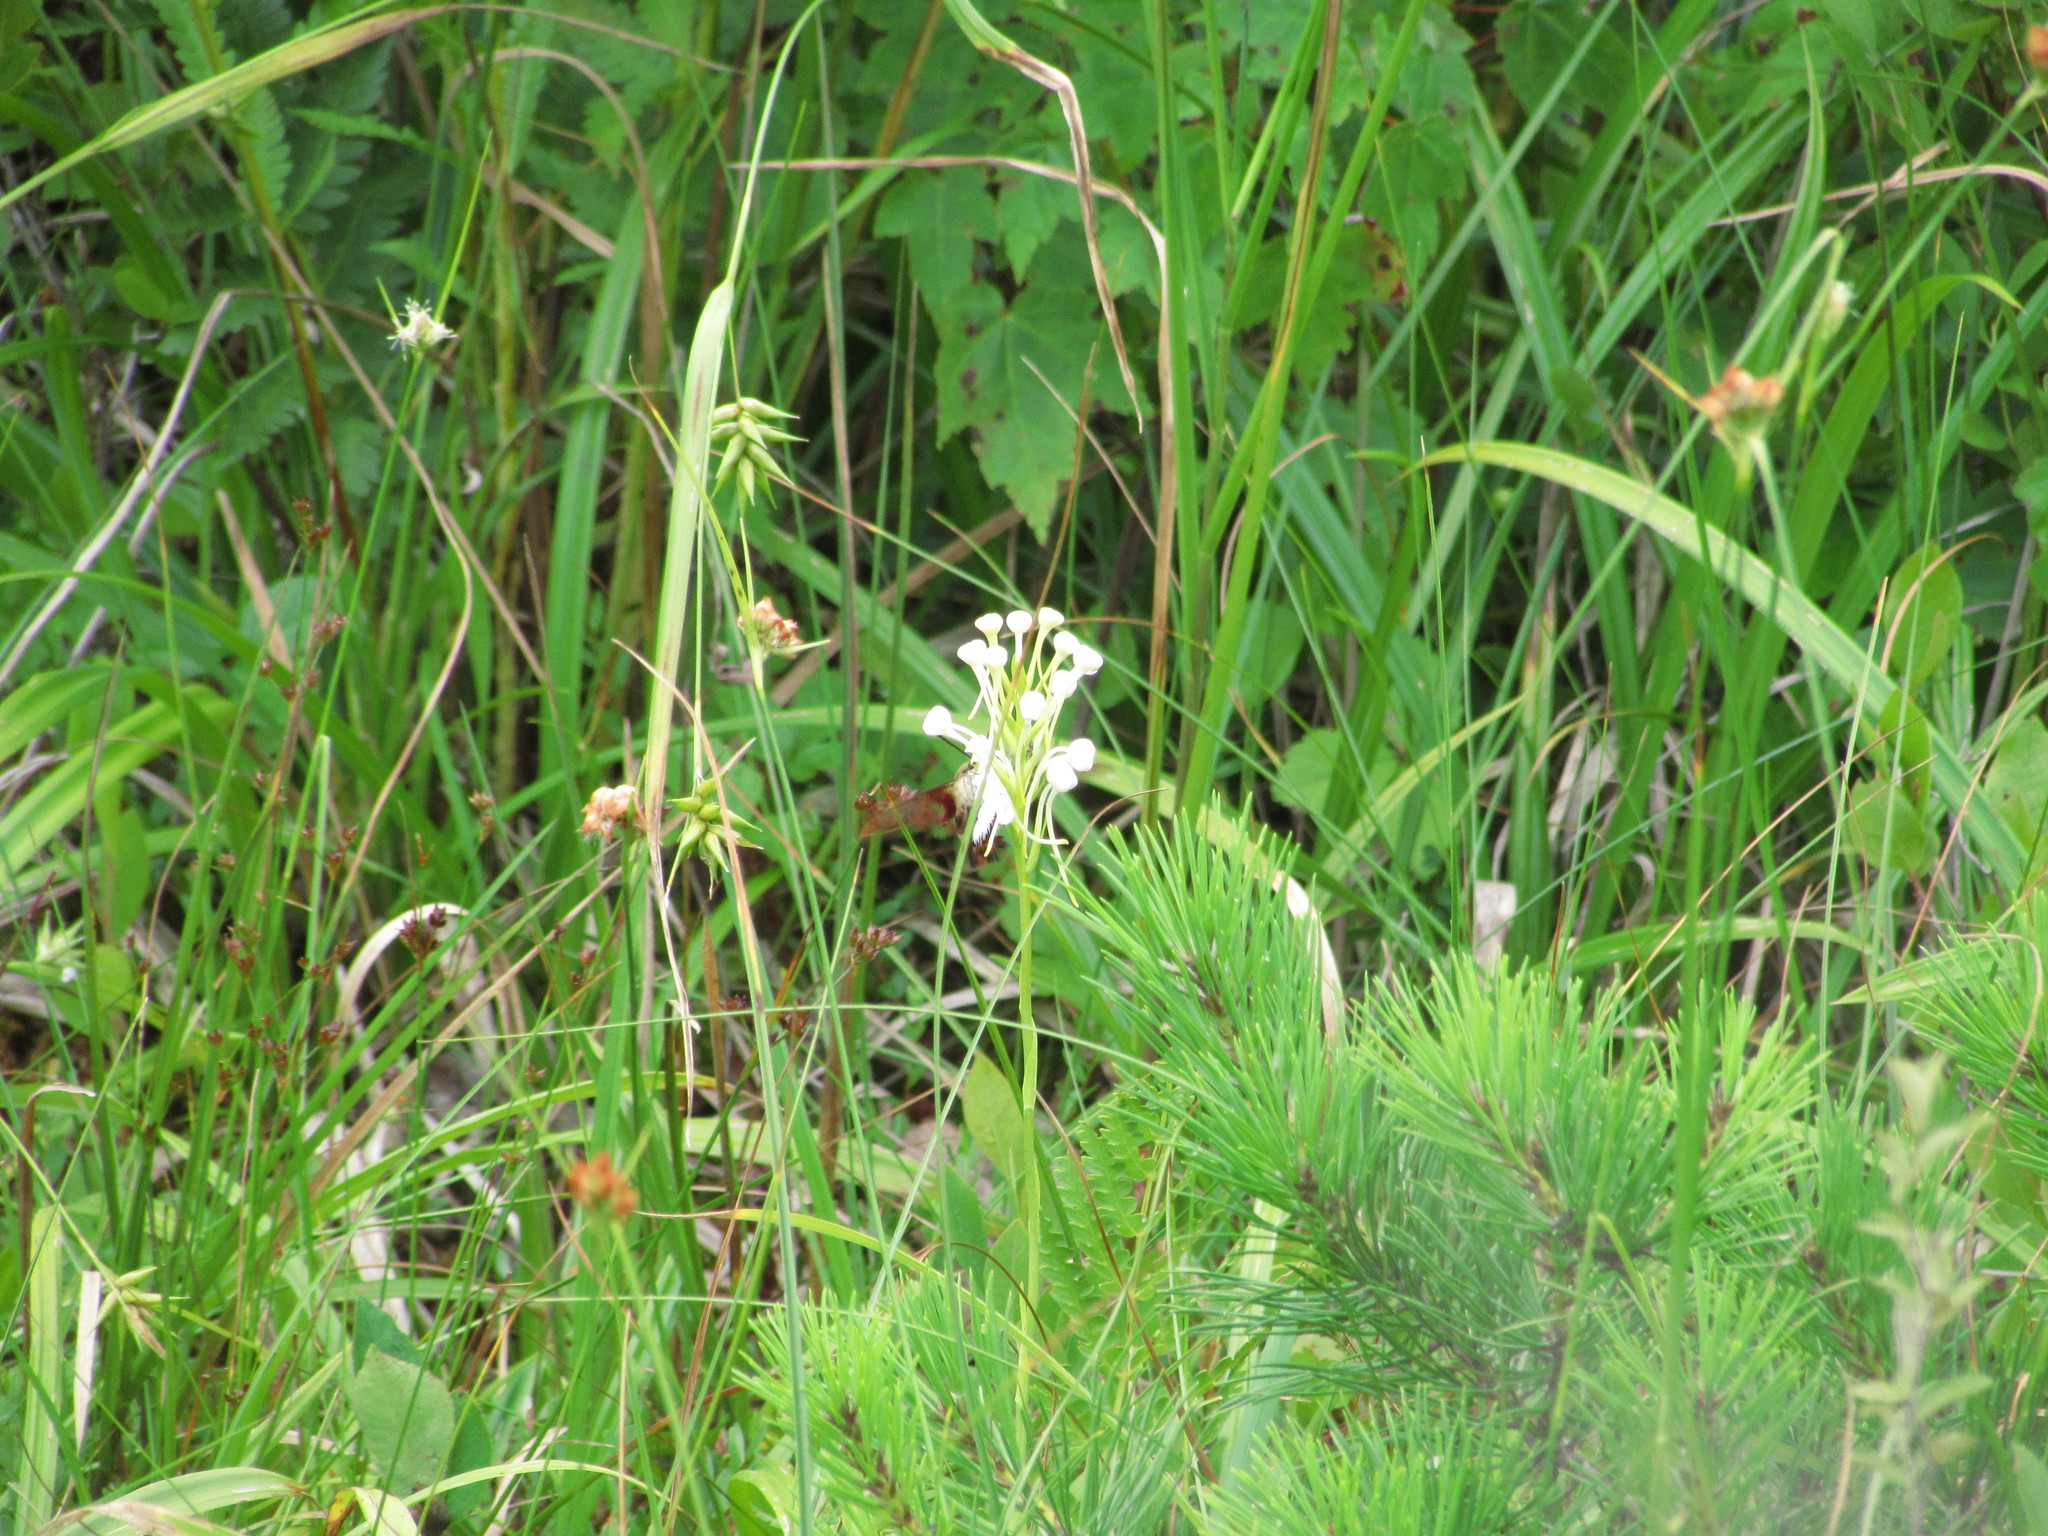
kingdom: Plantae
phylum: Tracheophyta
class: Liliopsida
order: Poales
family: Cyperaceae
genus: Carex
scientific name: Carex folliculata
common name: Northern long sedge
